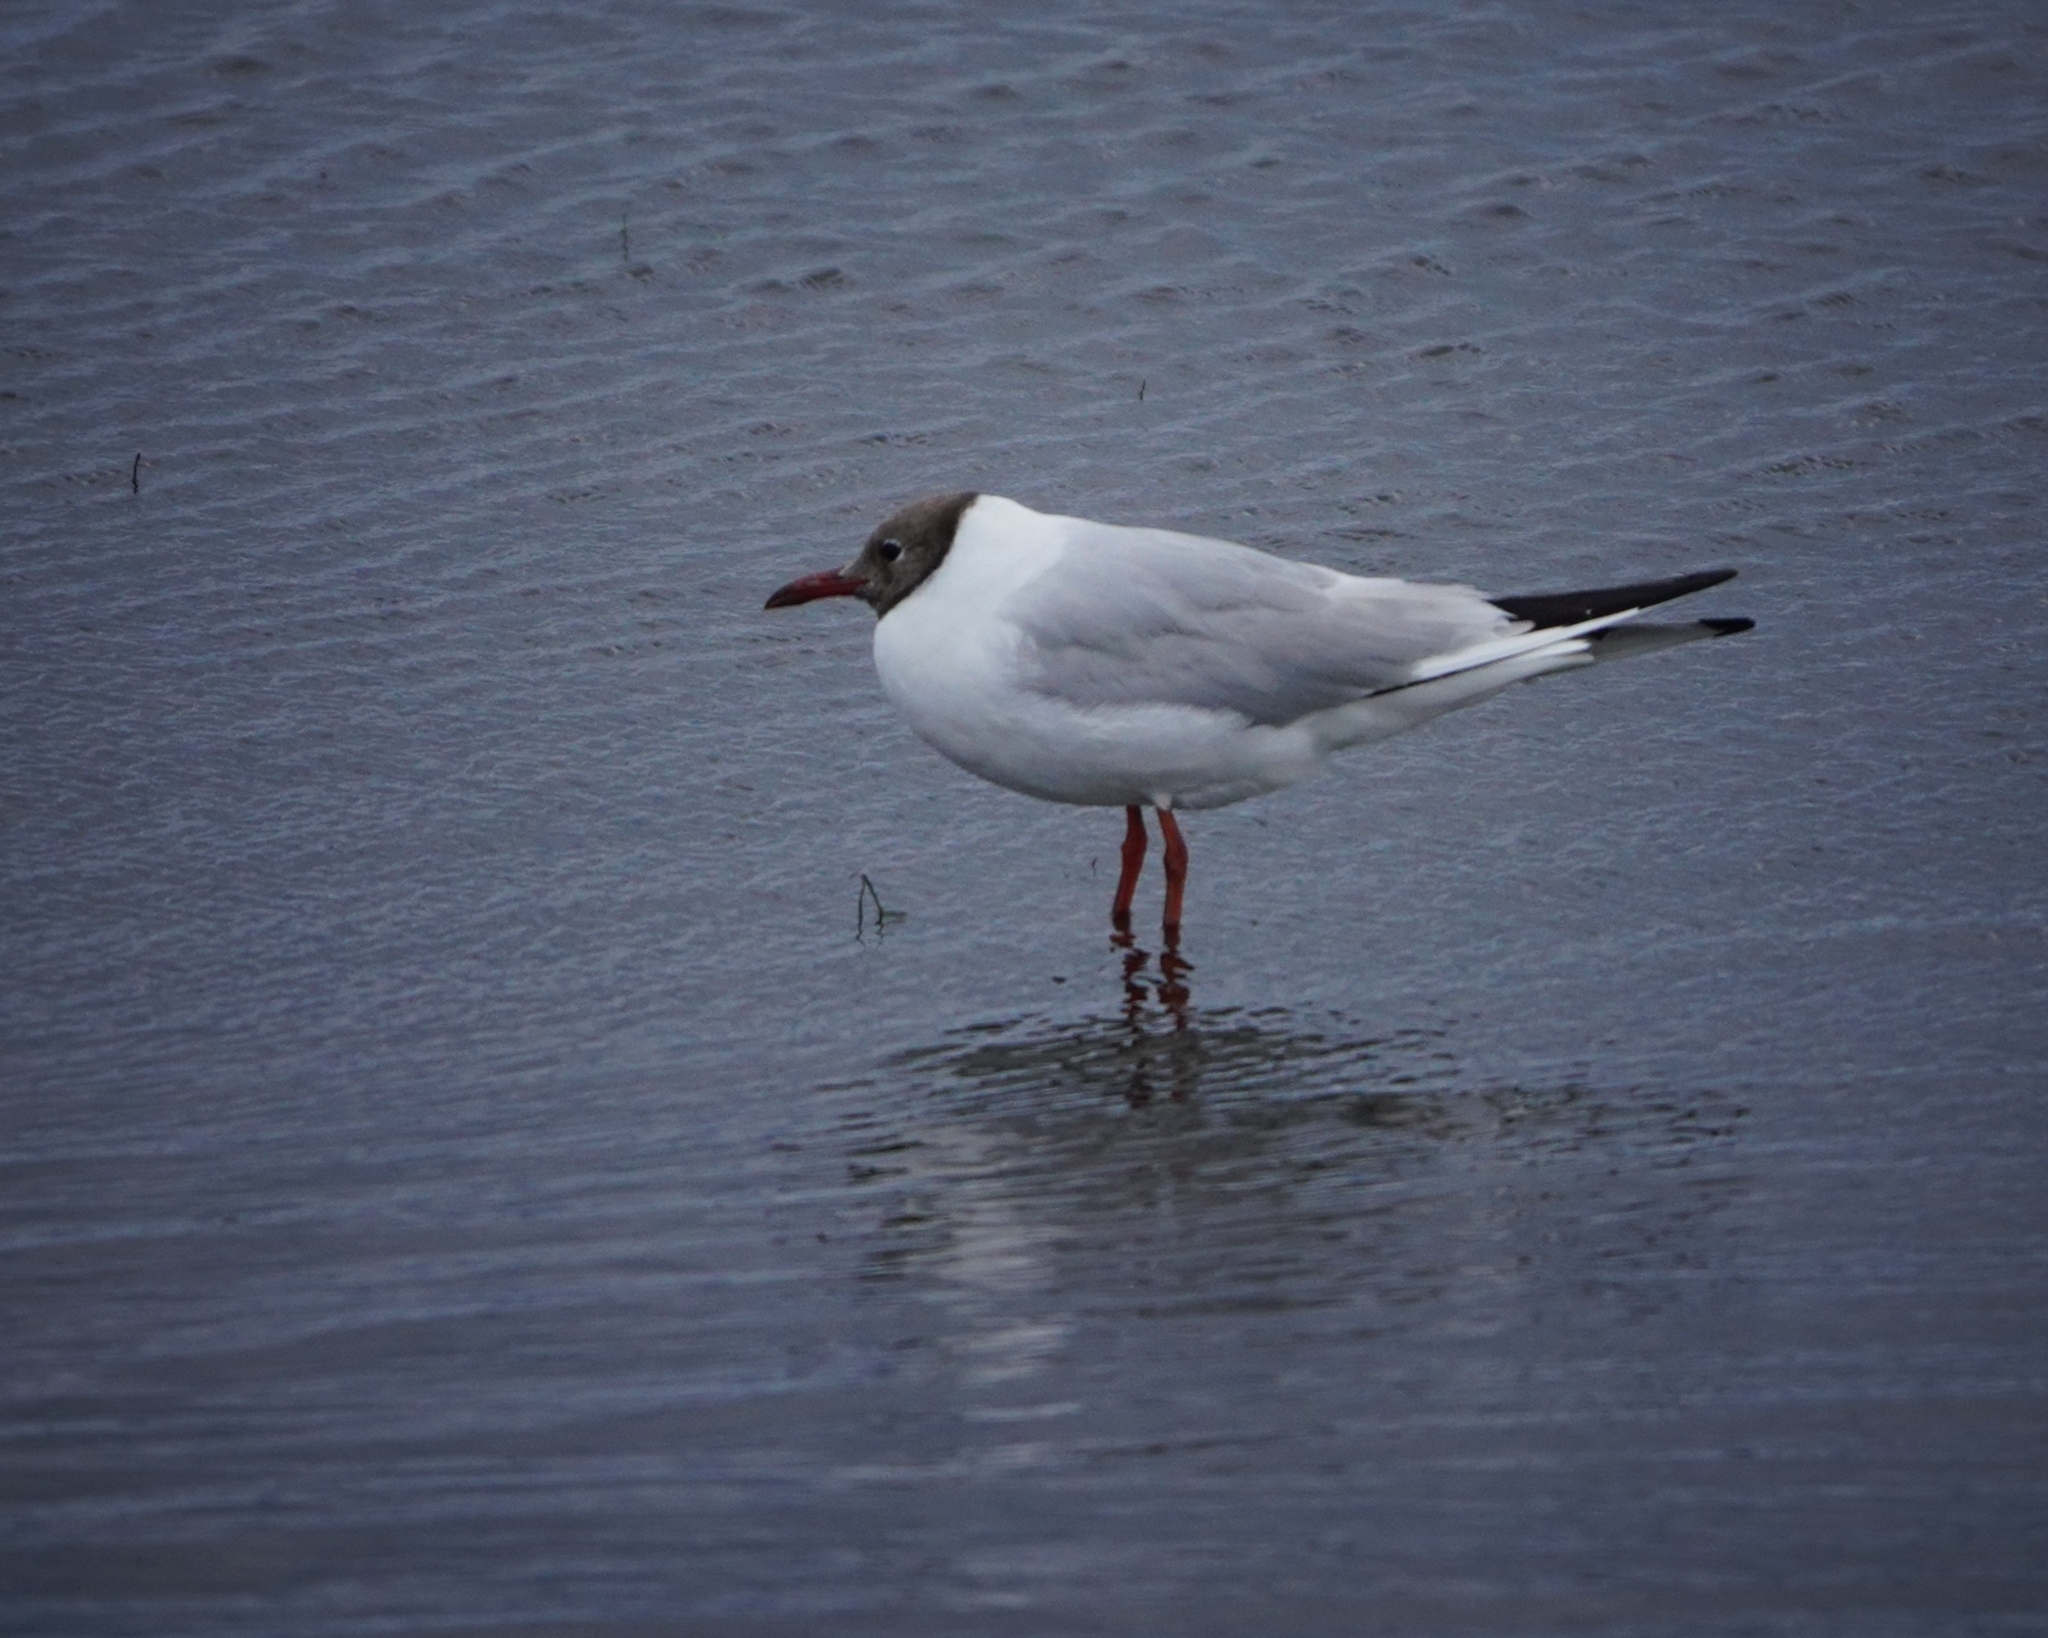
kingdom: Animalia
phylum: Chordata
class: Aves
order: Charadriiformes
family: Laridae
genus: Chroicocephalus
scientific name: Chroicocephalus ridibundus
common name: Black-headed gull
